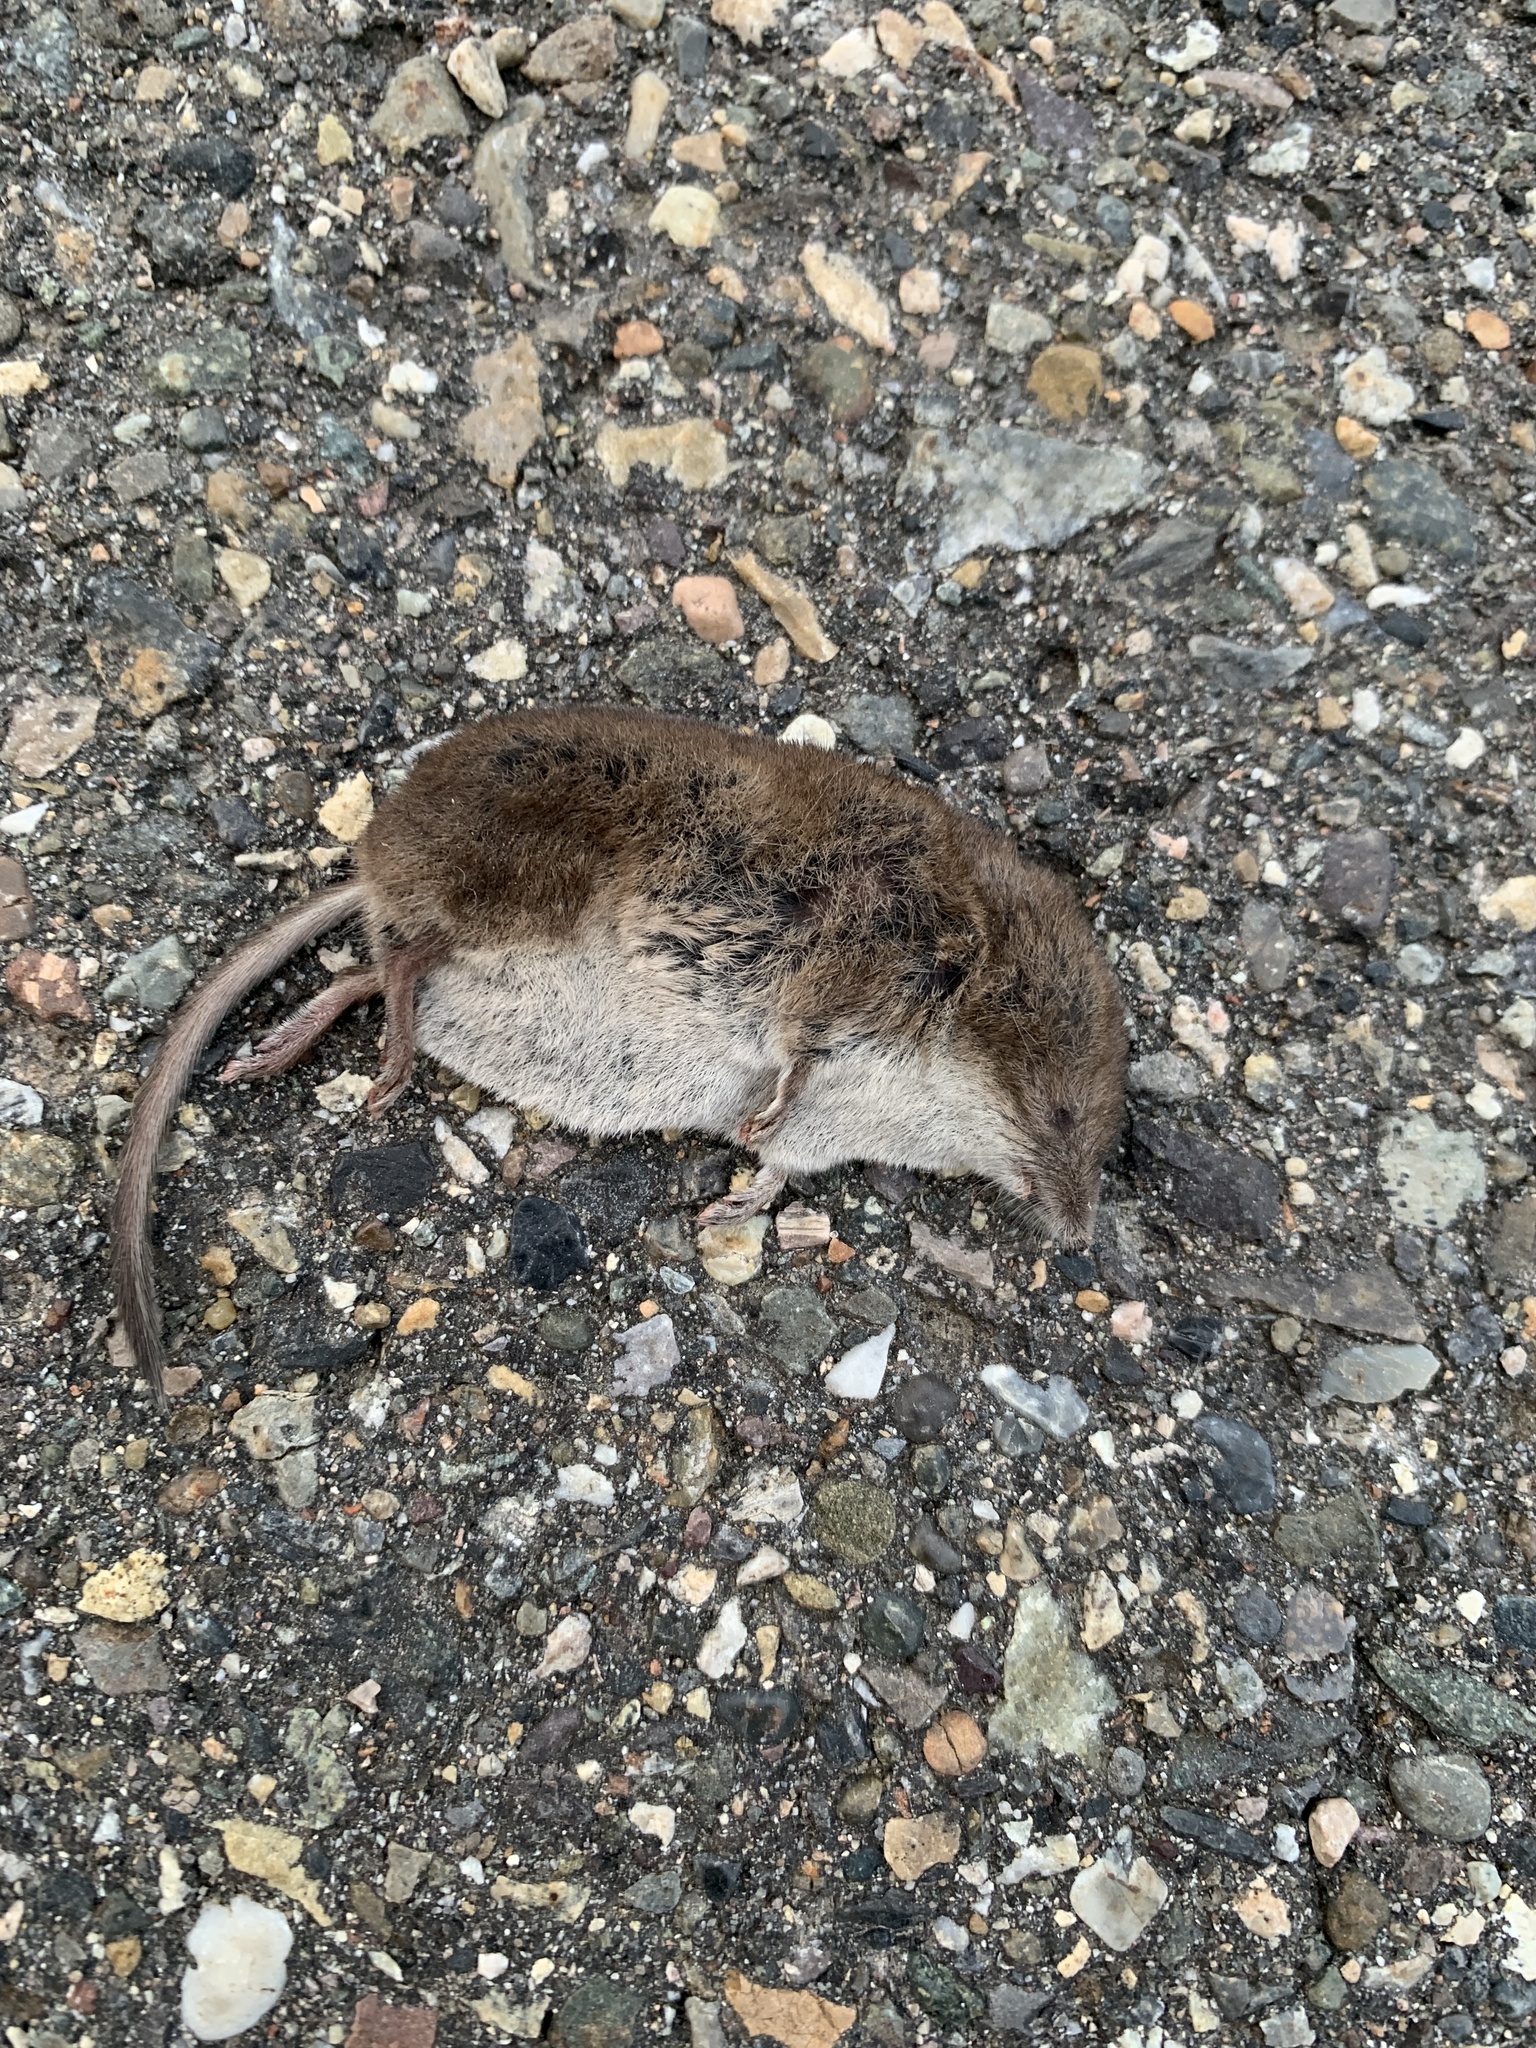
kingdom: Animalia
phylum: Chordata
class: Mammalia
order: Soricomorpha
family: Soricidae
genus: Sorex
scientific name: Sorex cinereus
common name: Cinereus shrew
